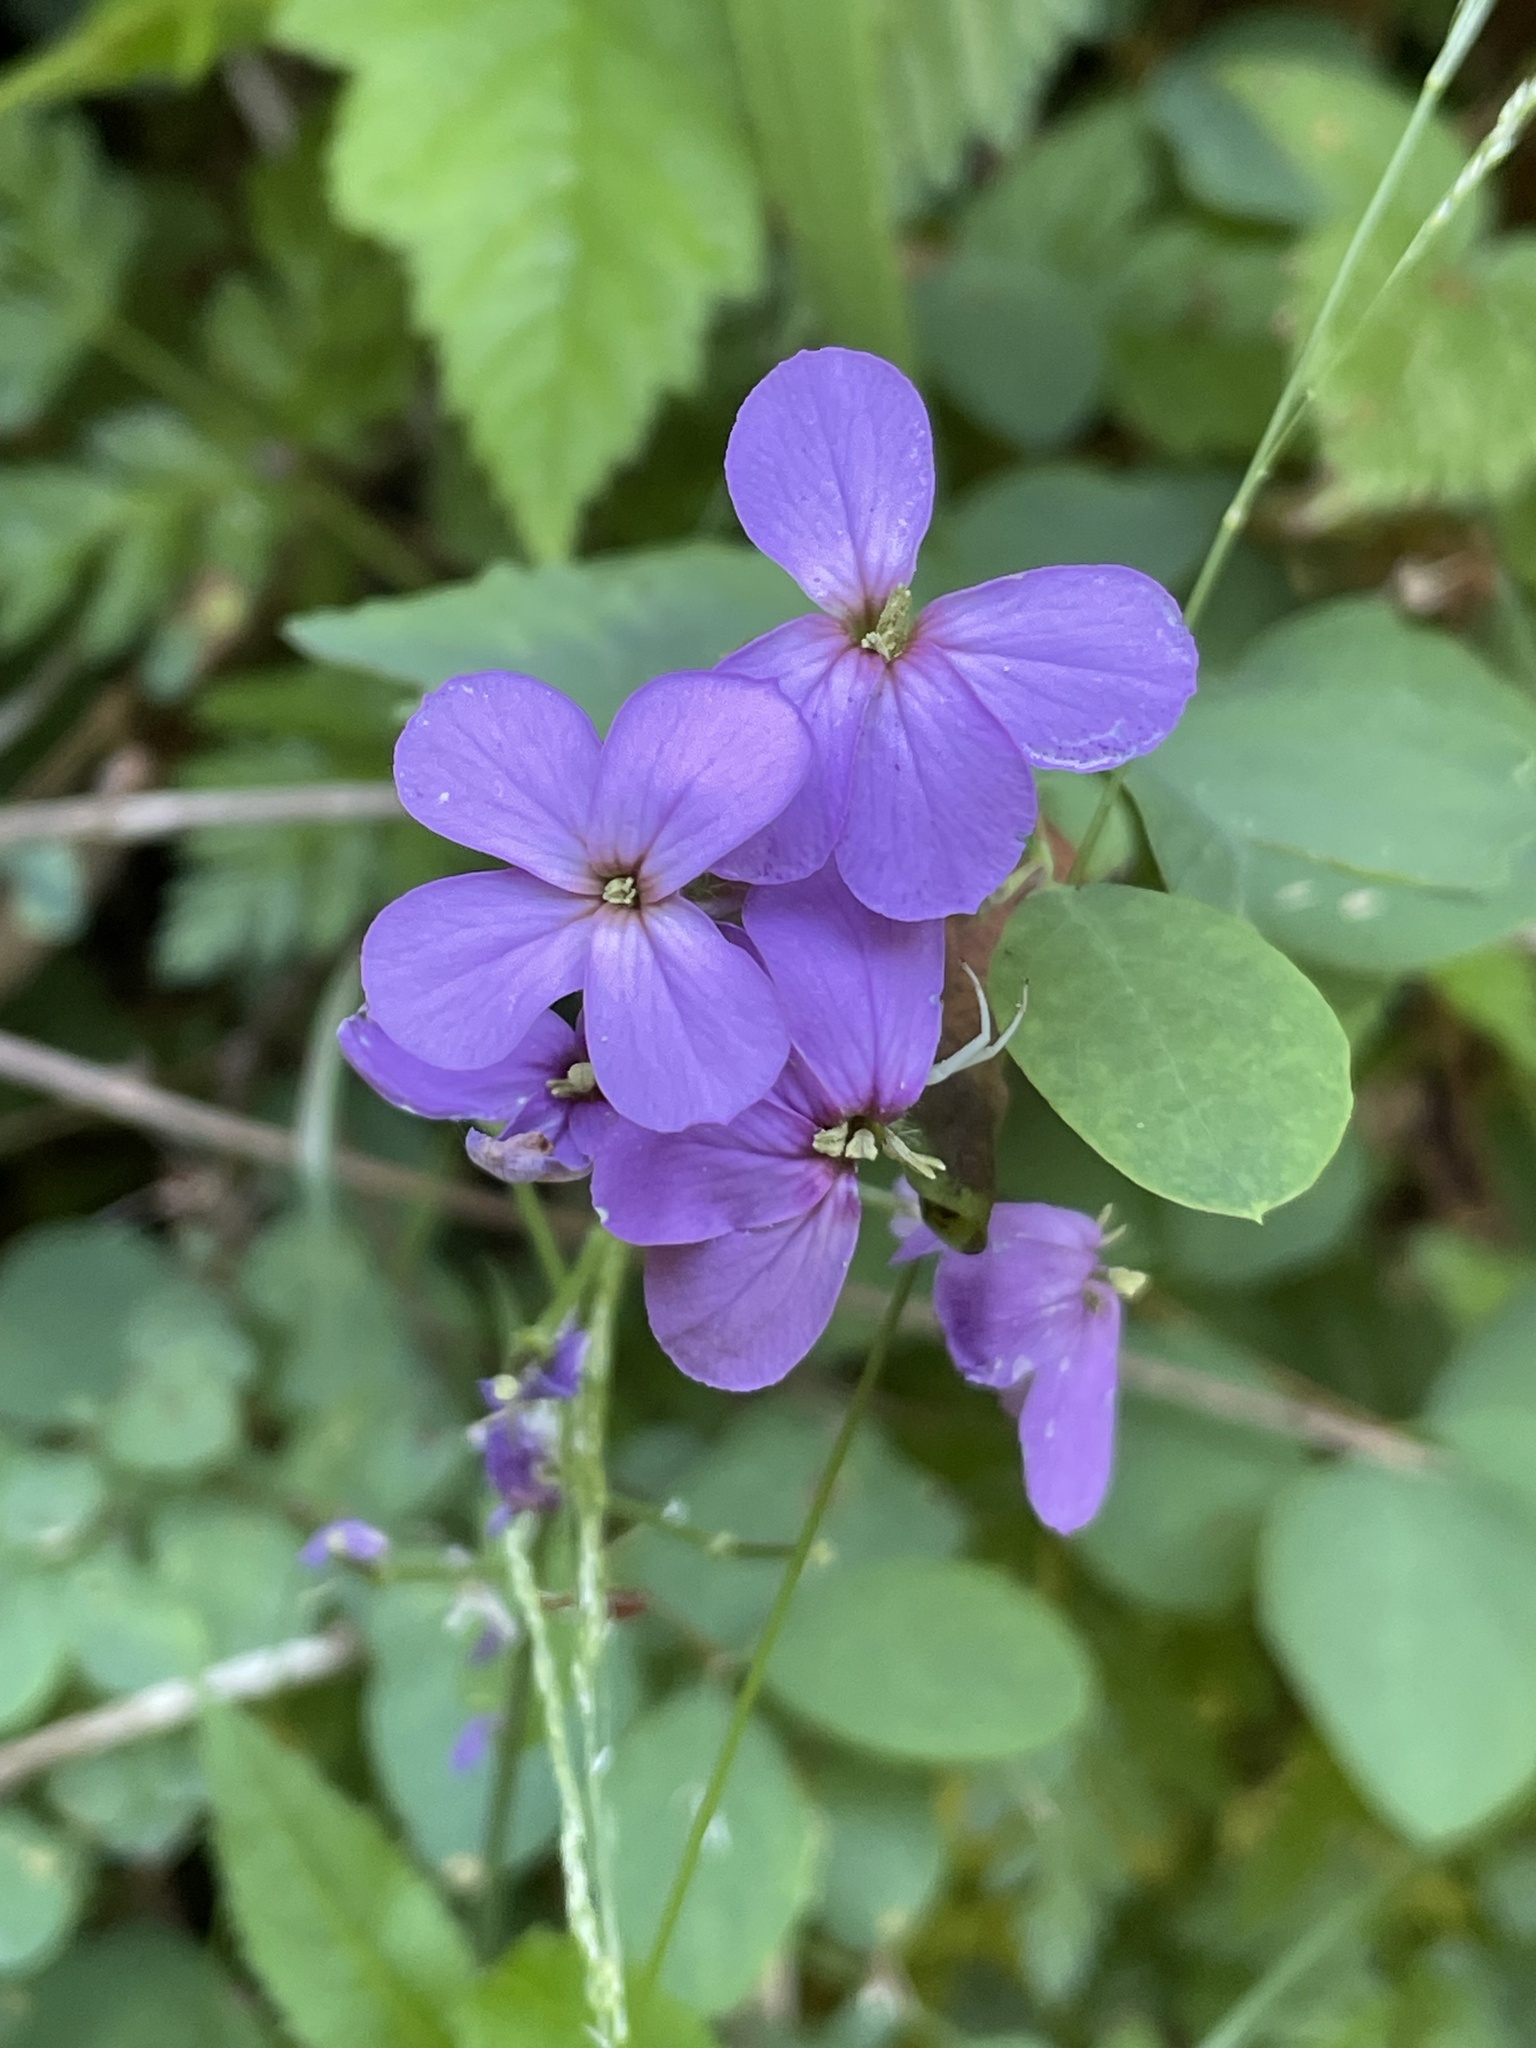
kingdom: Plantae
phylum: Tracheophyta
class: Magnoliopsida
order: Brassicales
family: Brassicaceae
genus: Hesperis
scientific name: Hesperis matronalis
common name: Dame's-violet
